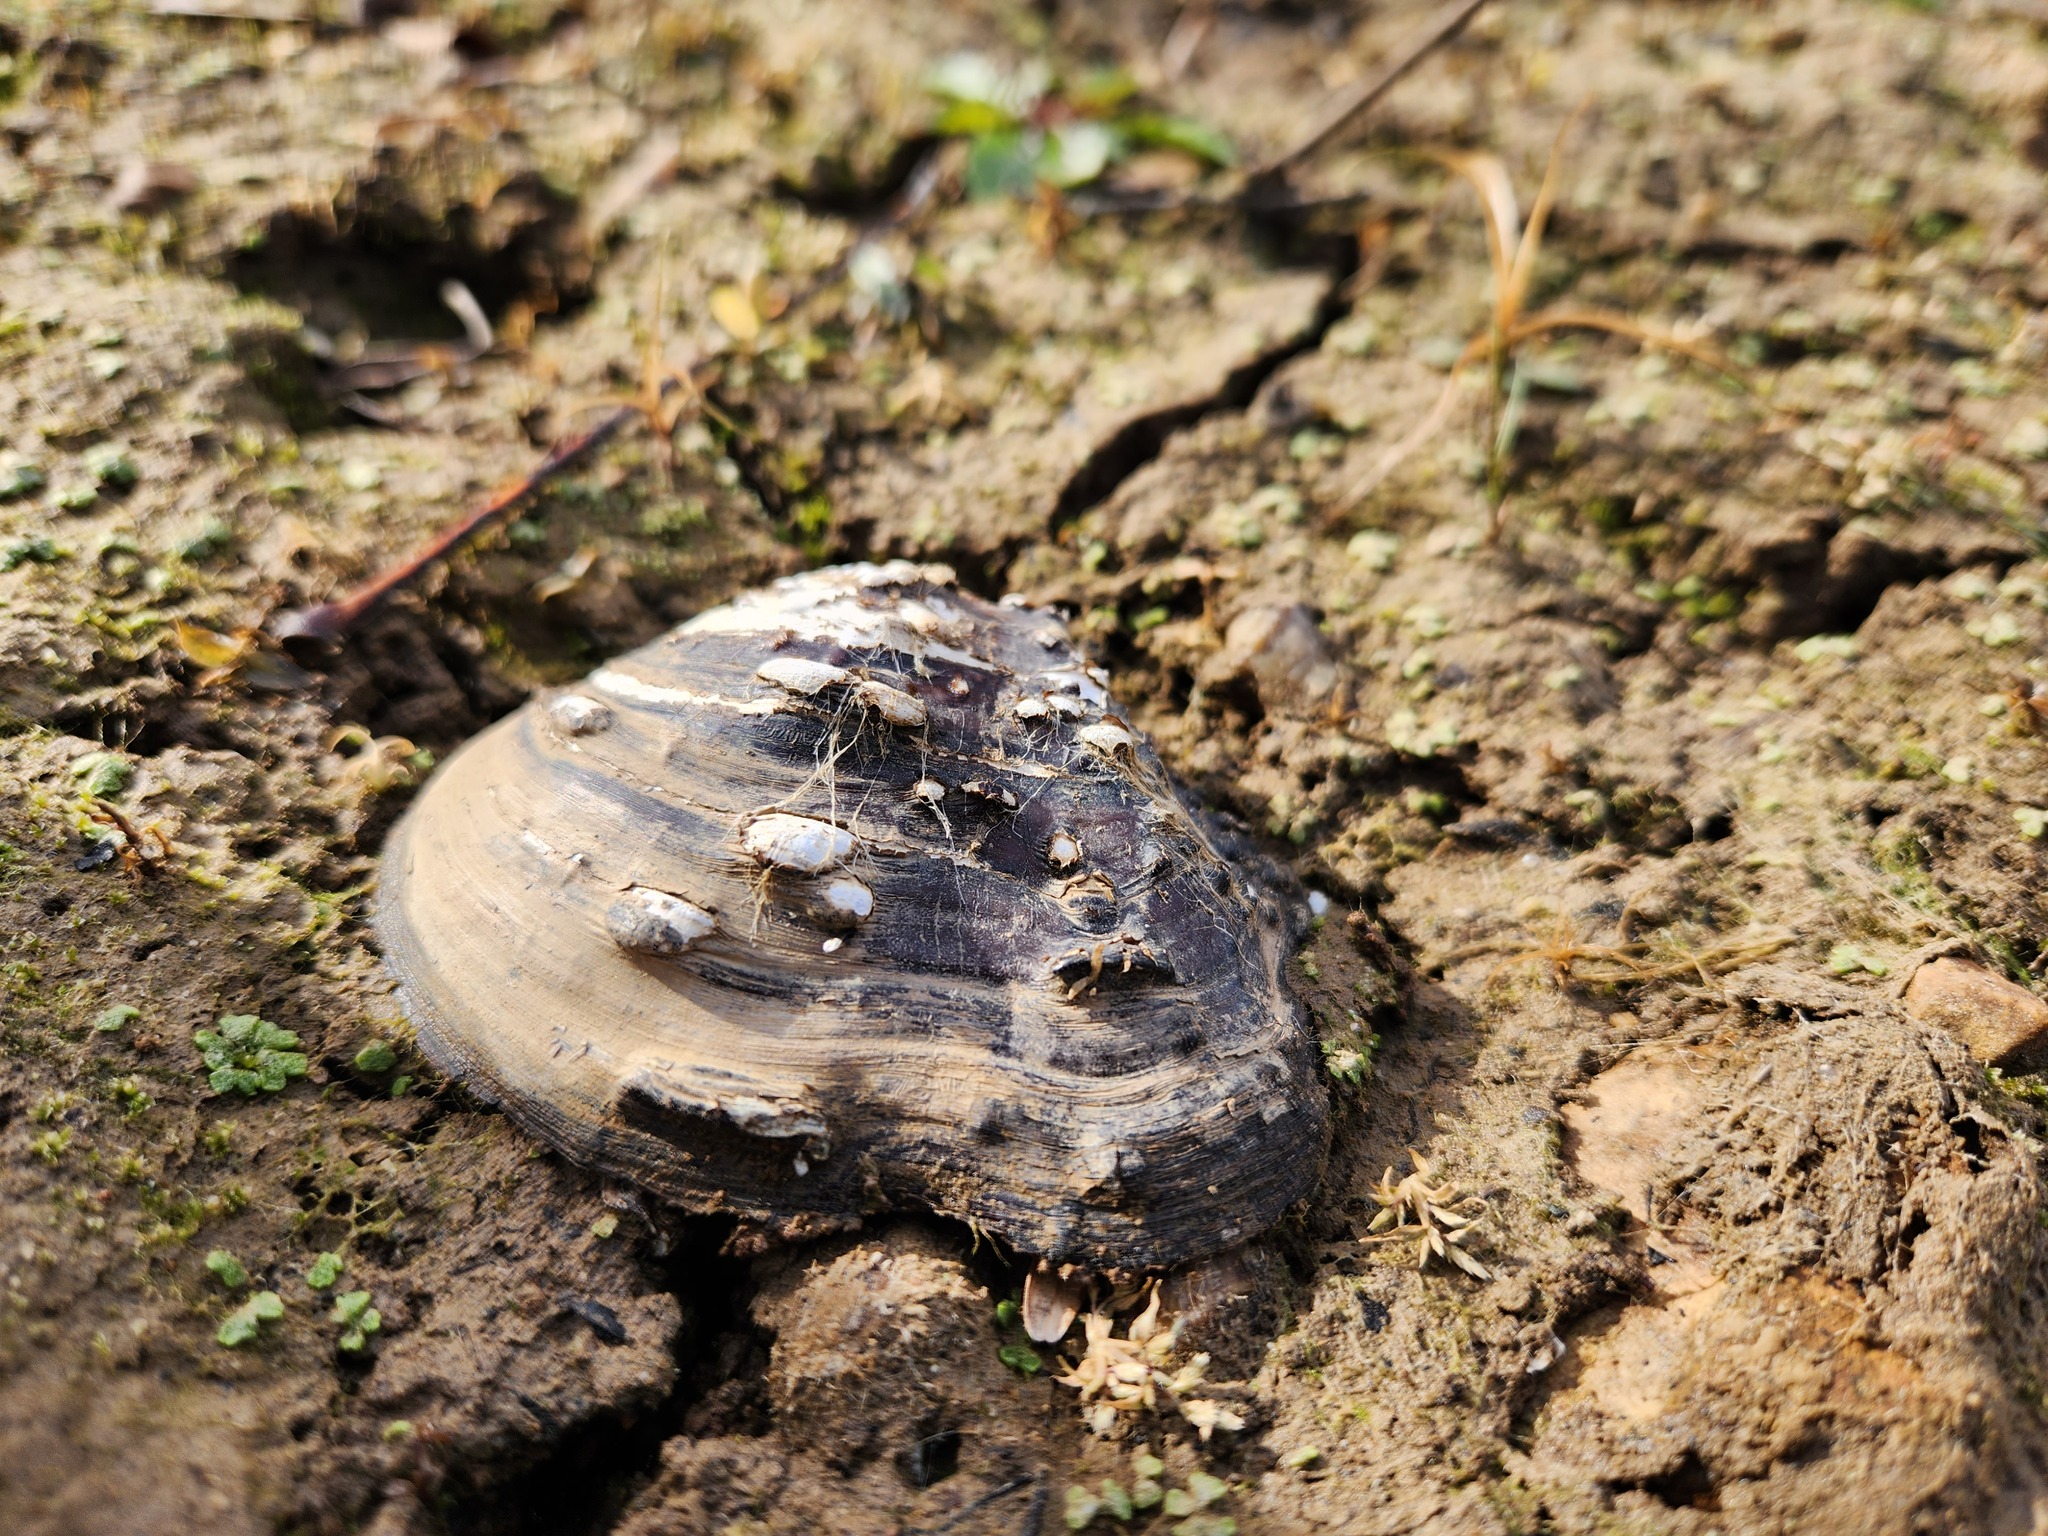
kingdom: Animalia
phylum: Mollusca
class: Bivalvia
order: Unionida
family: Unionidae
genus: Quadrula
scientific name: Quadrula quadrula
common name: Mapleleaf
